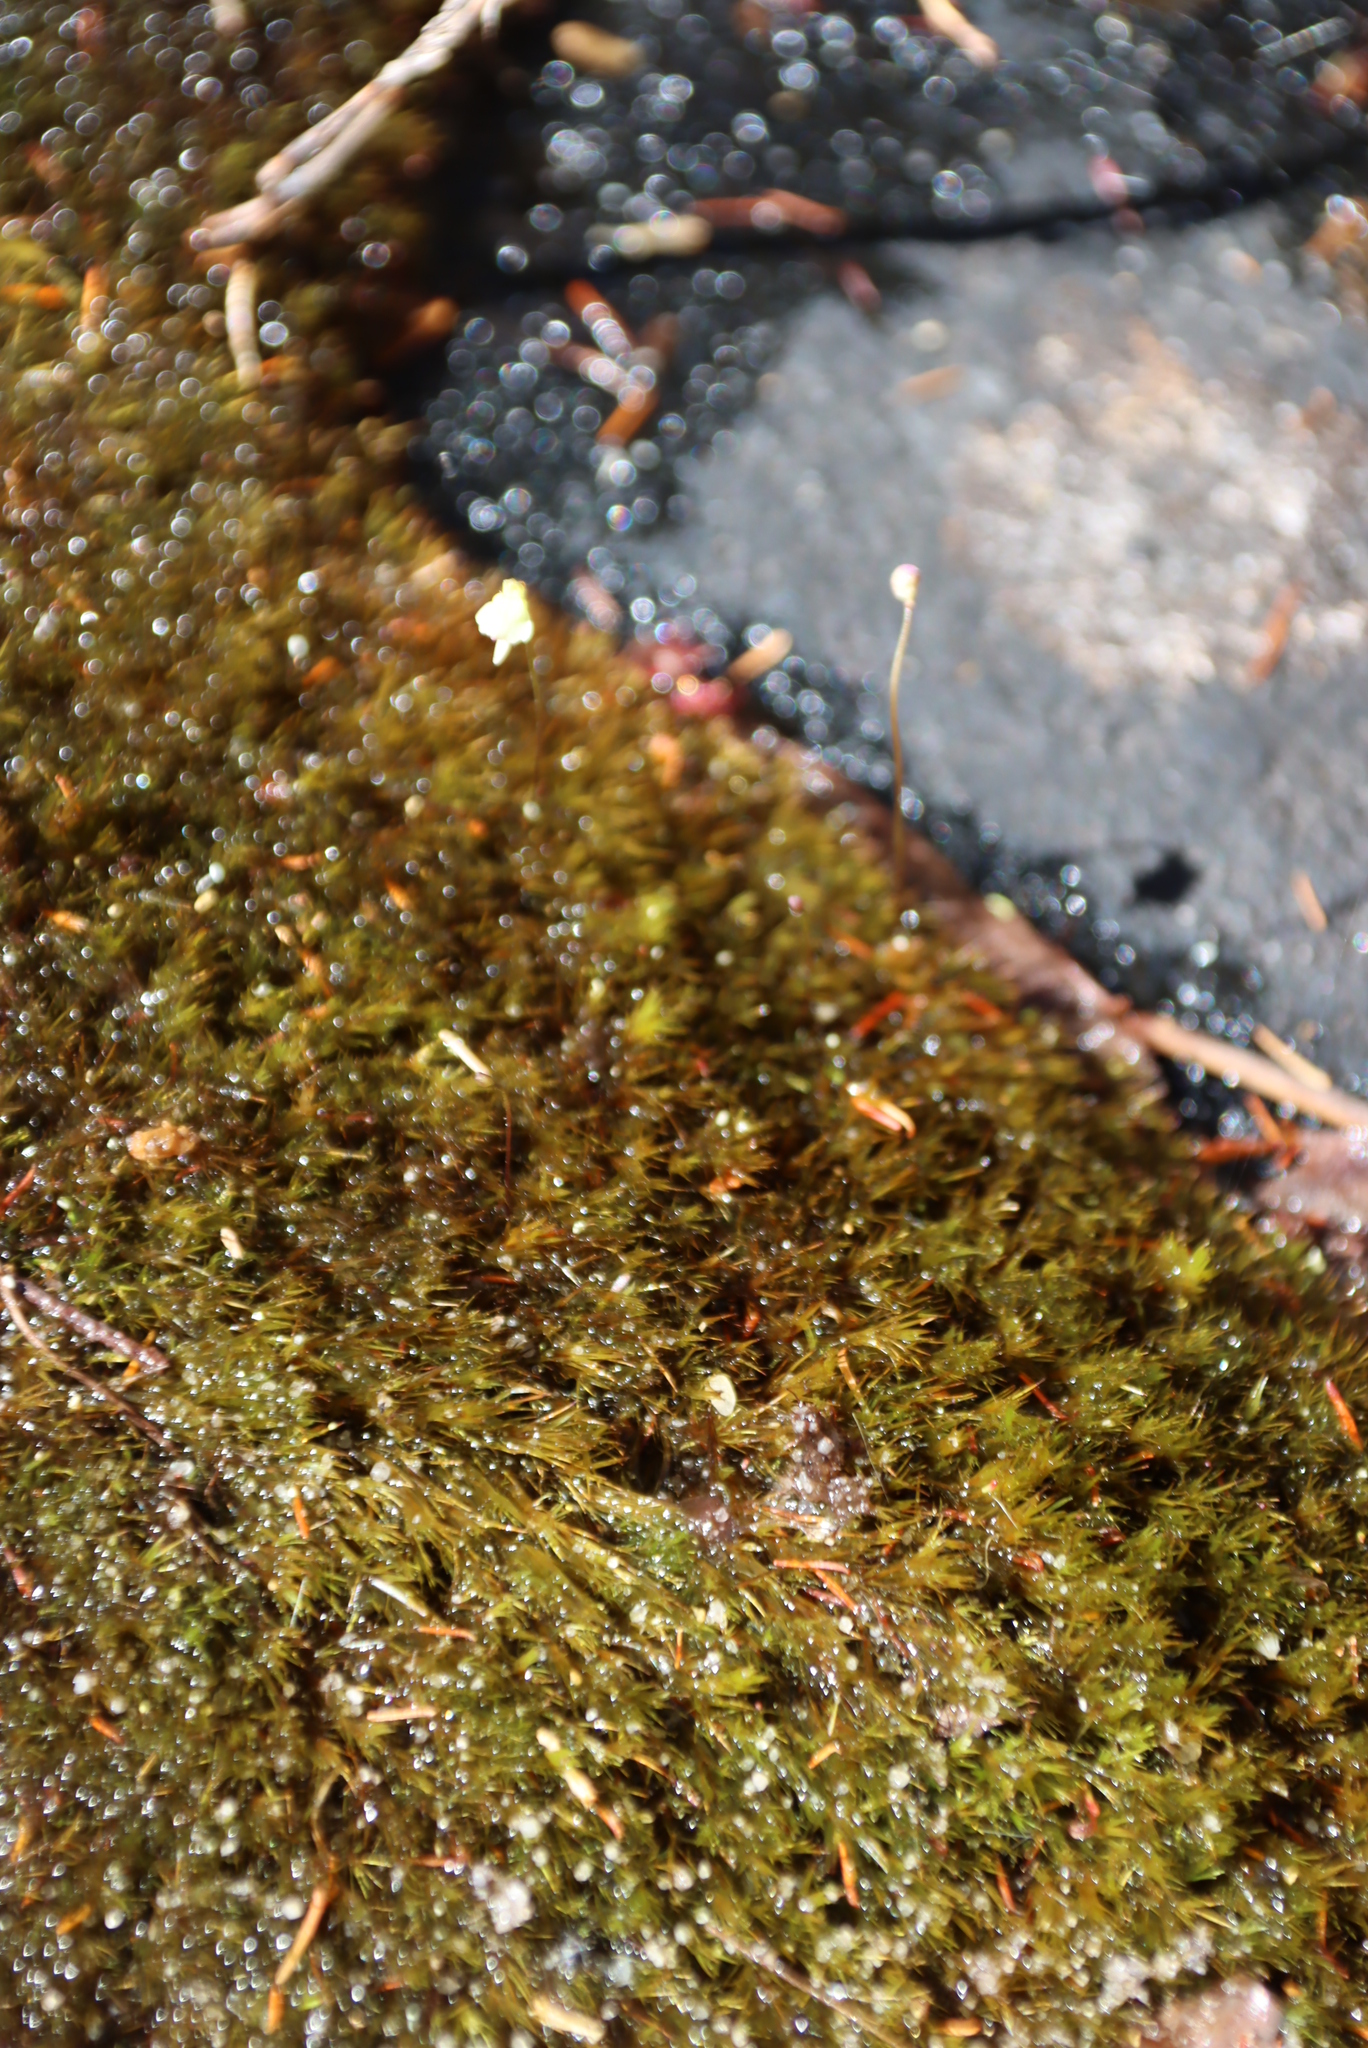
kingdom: Plantae
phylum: Tracheophyta
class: Magnoliopsida
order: Lamiales
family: Lentibulariaceae
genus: Utricularia
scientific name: Utricularia bisquamata
